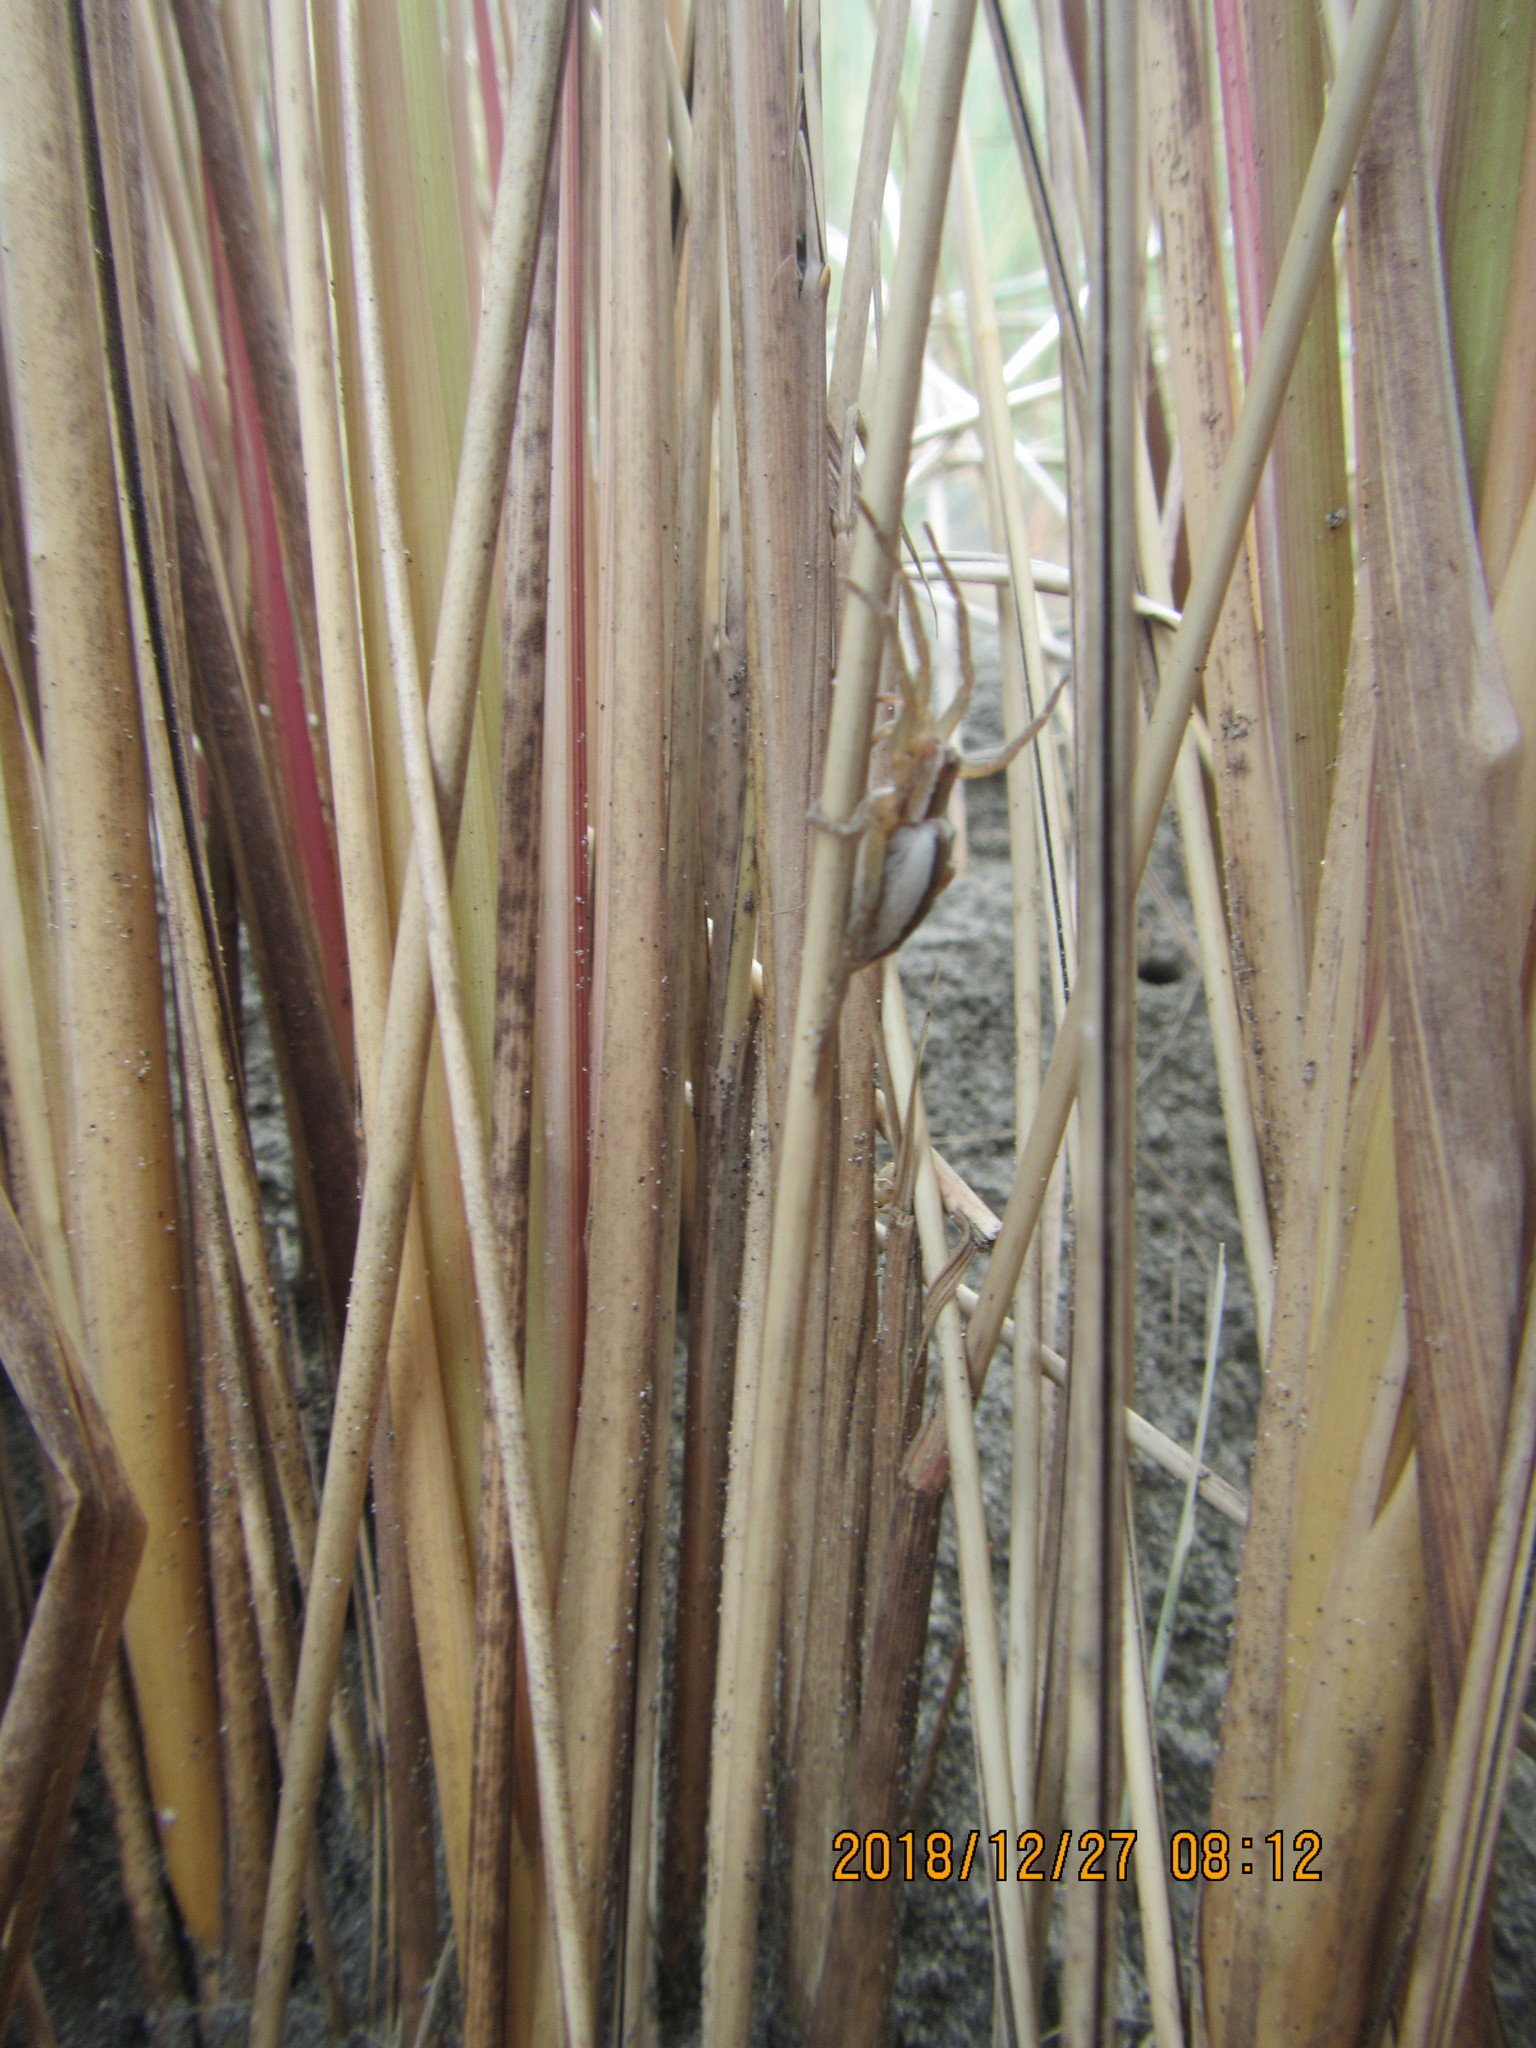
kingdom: Animalia
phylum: Arthropoda
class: Arachnida
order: Araneae
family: Pisauridae
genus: Dolomedes
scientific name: Dolomedes minor
